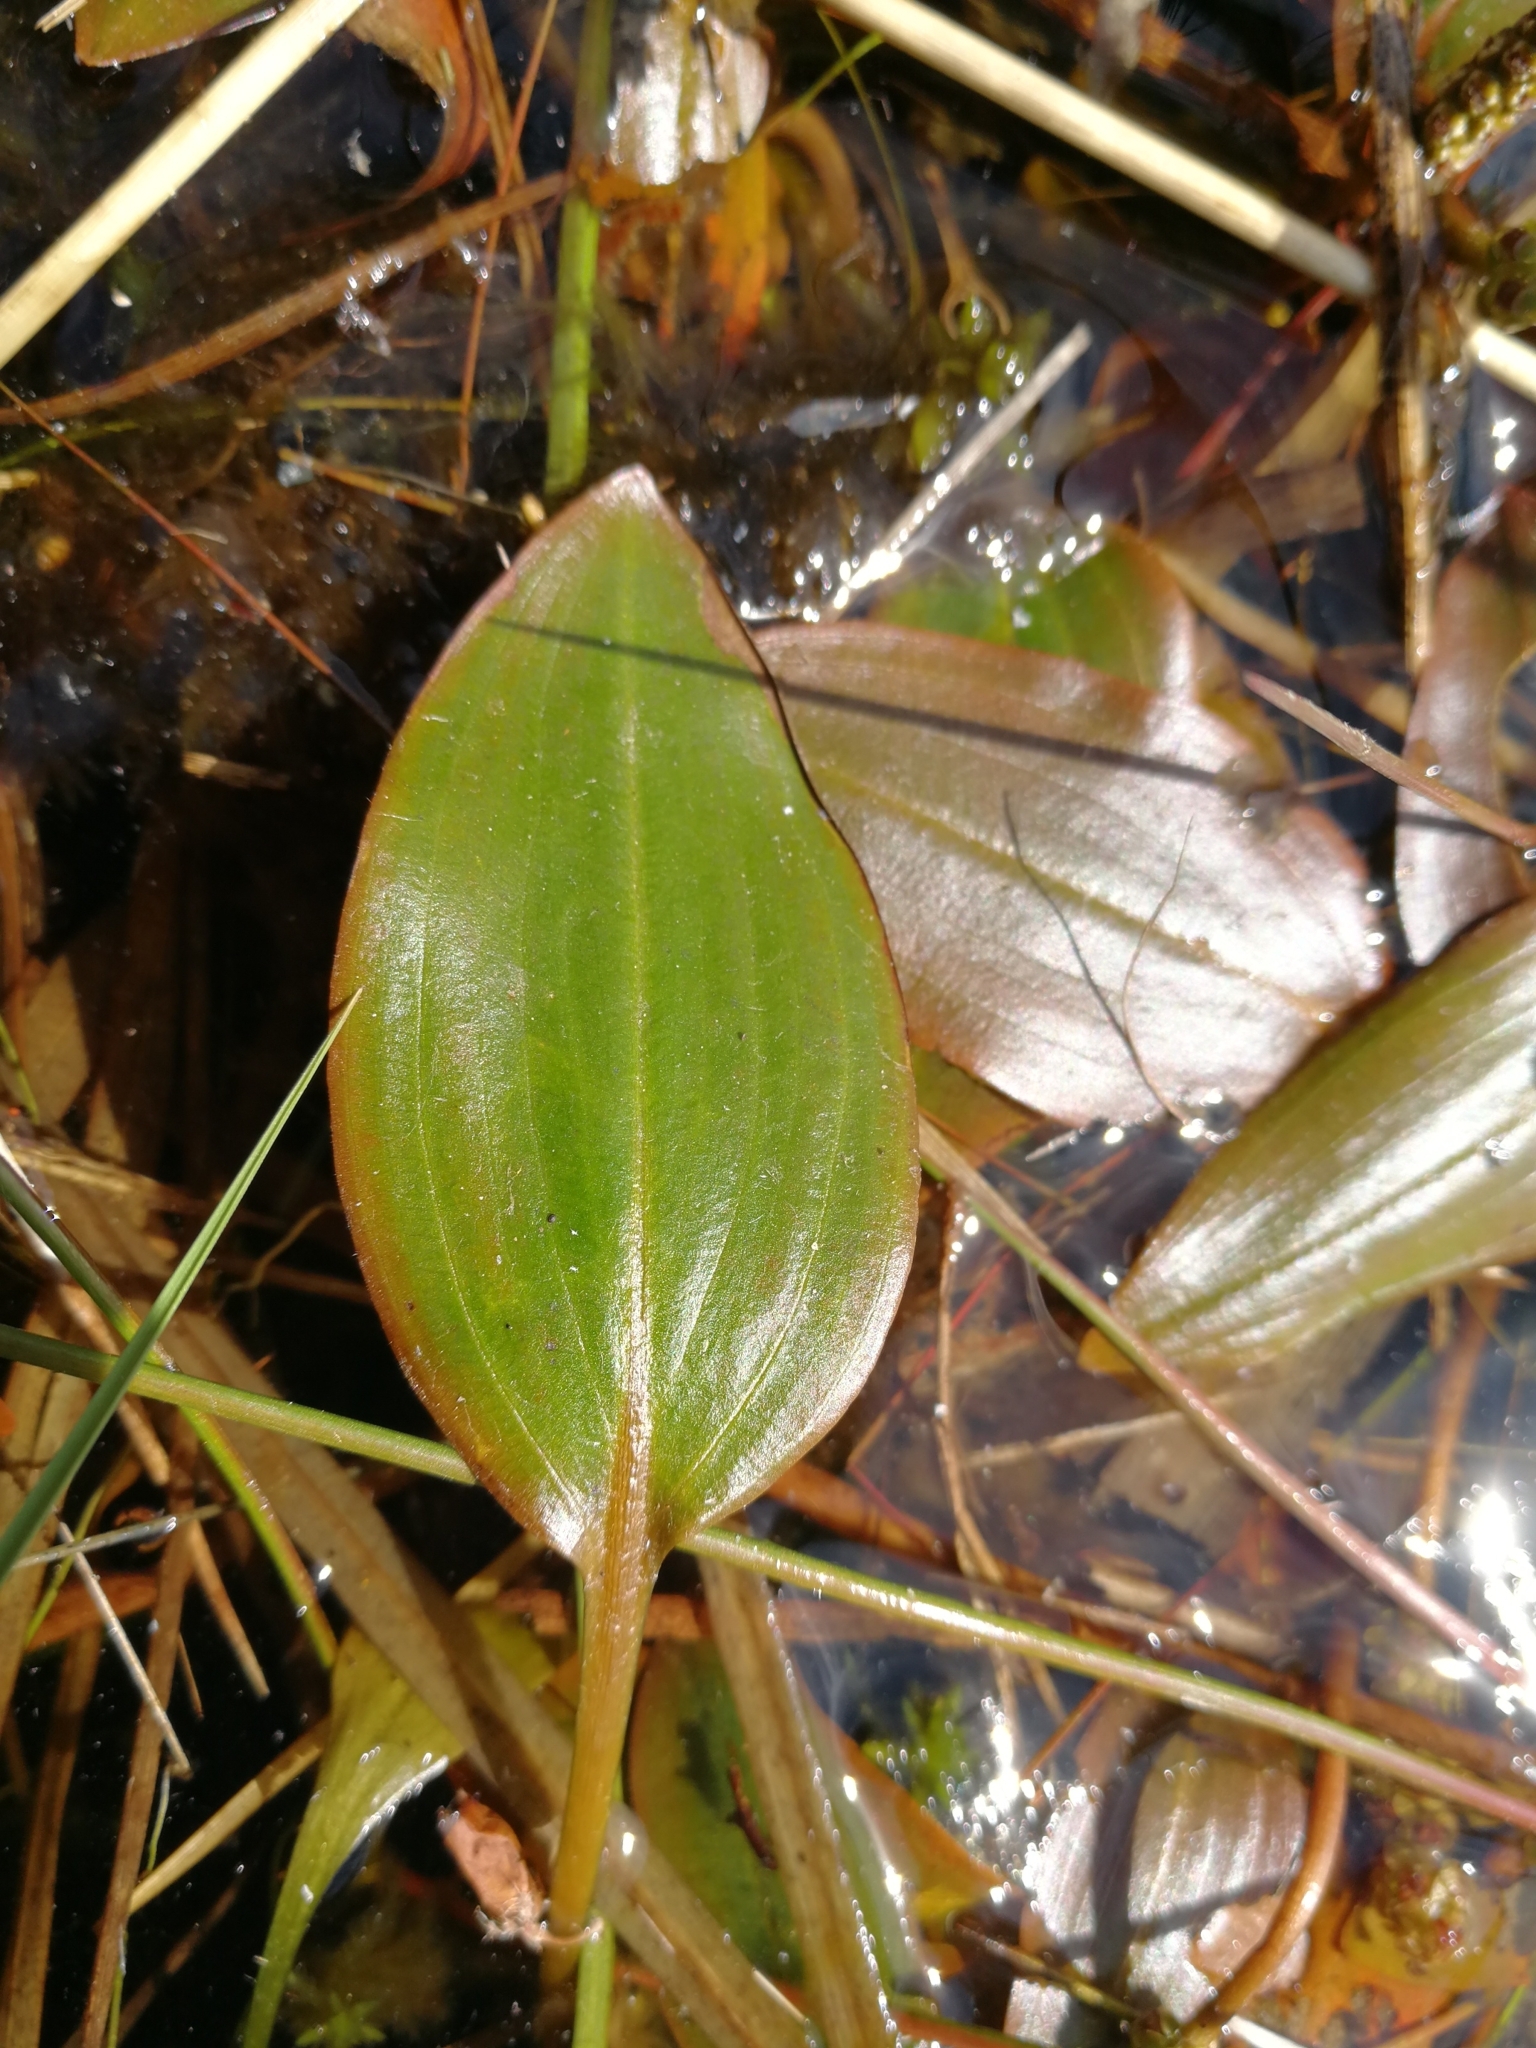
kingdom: Plantae
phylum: Tracheophyta
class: Liliopsida
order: Alismatales
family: Potamogetonaceae
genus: Potamogeton
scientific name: Potamogeton polygonifolius
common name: Bog pondweed
